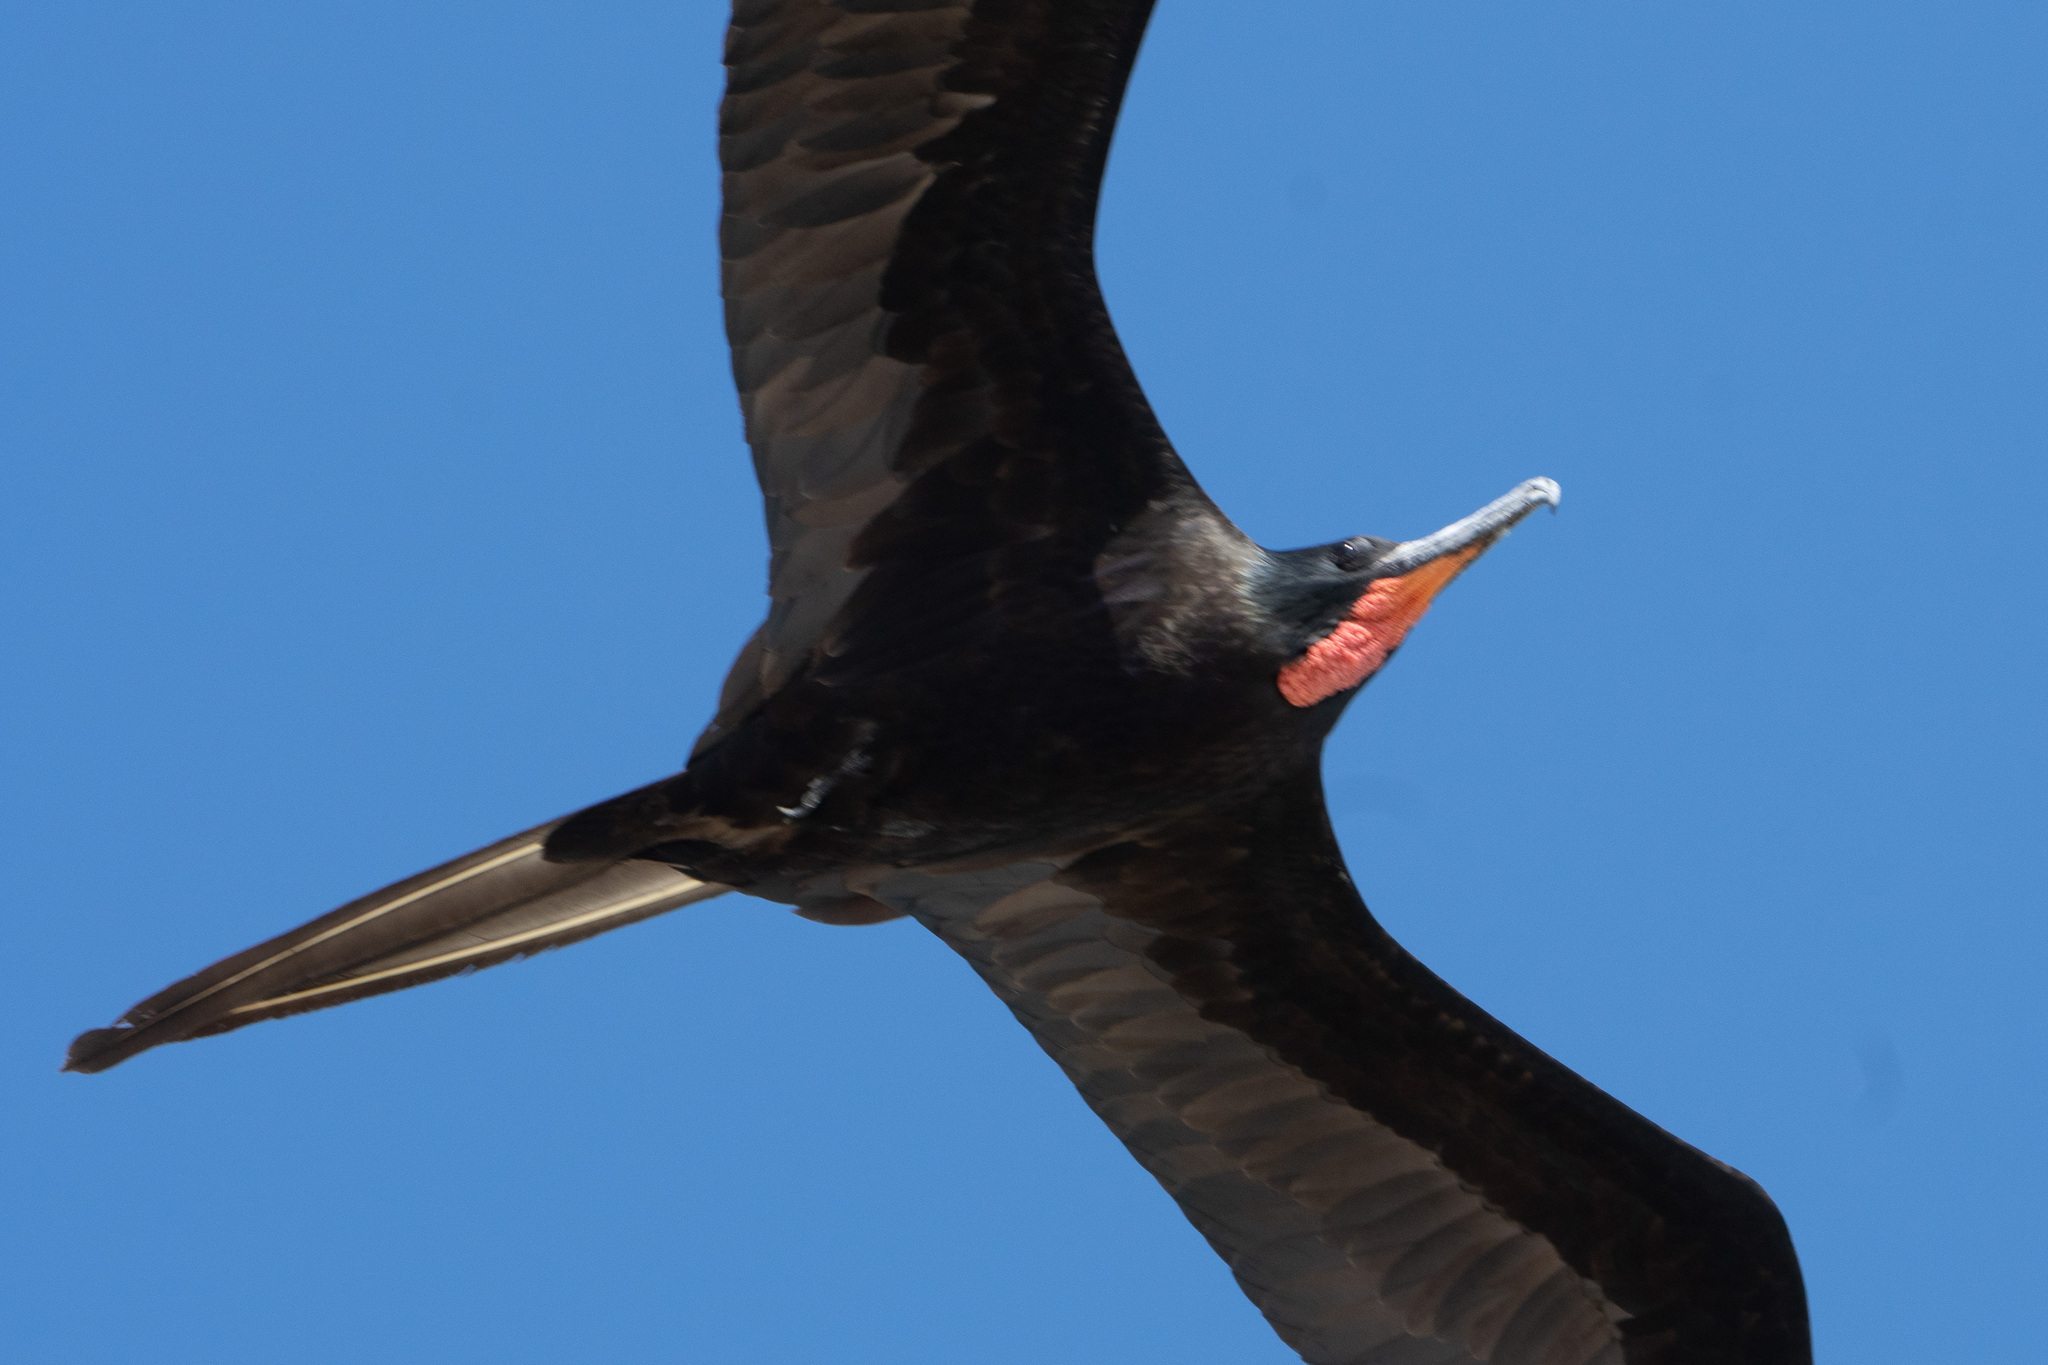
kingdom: Animalia
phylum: Chordata
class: Aves
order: Suliformes
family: Fregatidae
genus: Fregata
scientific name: Fregata magnificens
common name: Magnificent frigatebird
